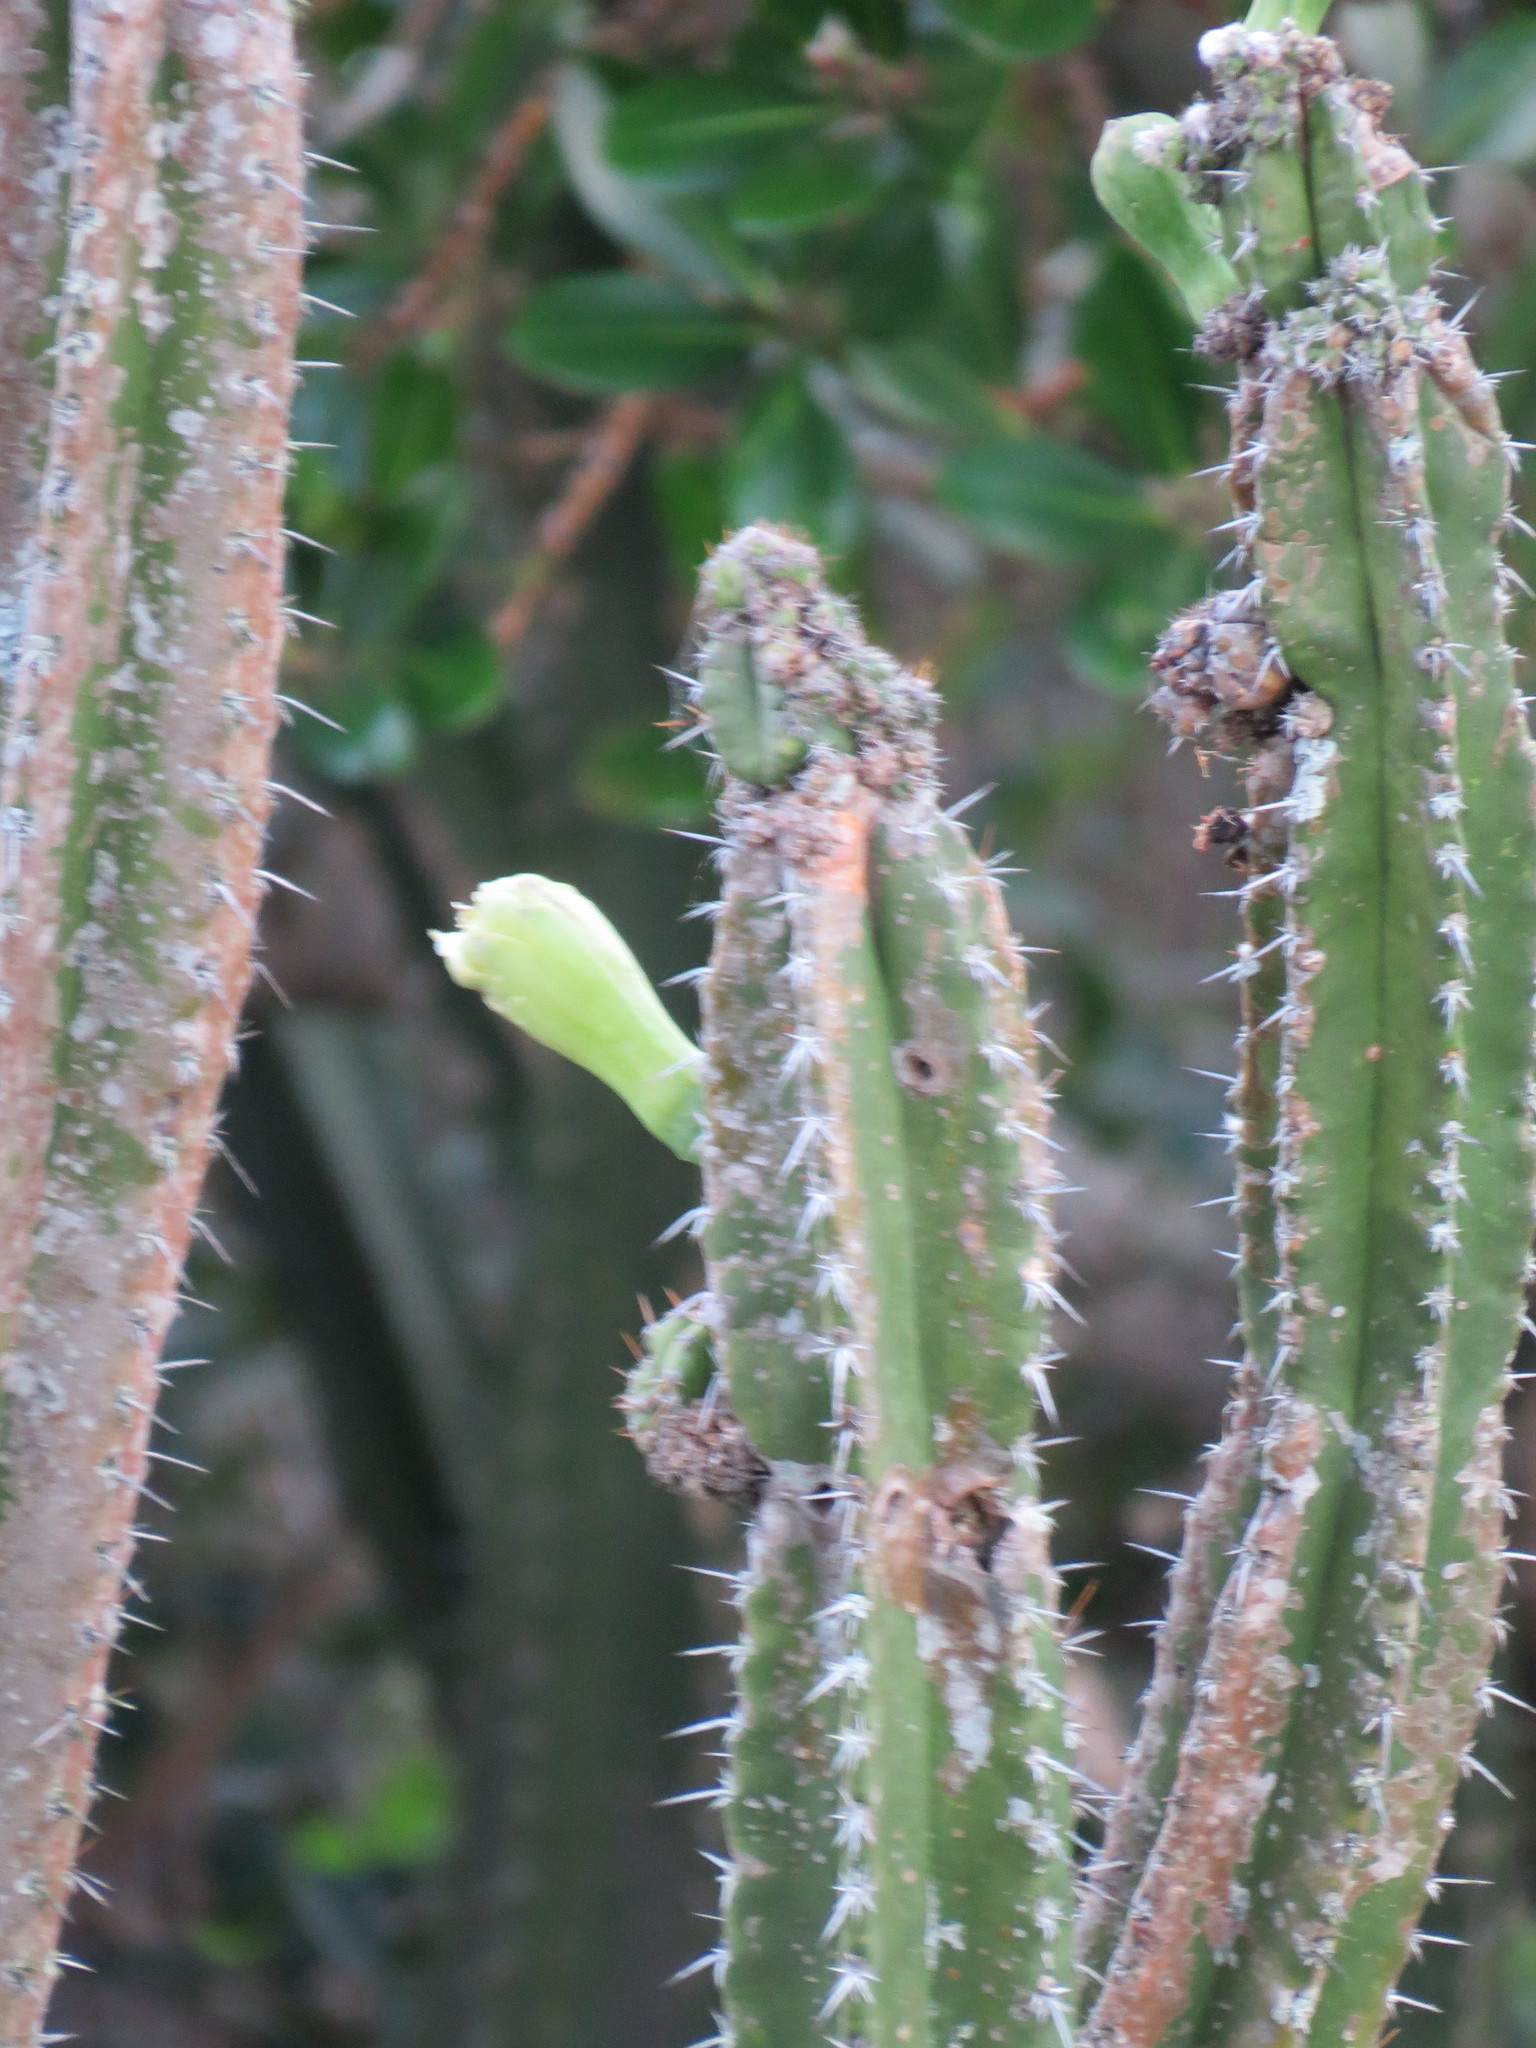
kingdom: Plantae
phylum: Tracheophyta
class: Magnoliopsida
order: Caryophyllales
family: Cactaceae
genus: Pilosocereus
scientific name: Pilosocereus brasiliensis
